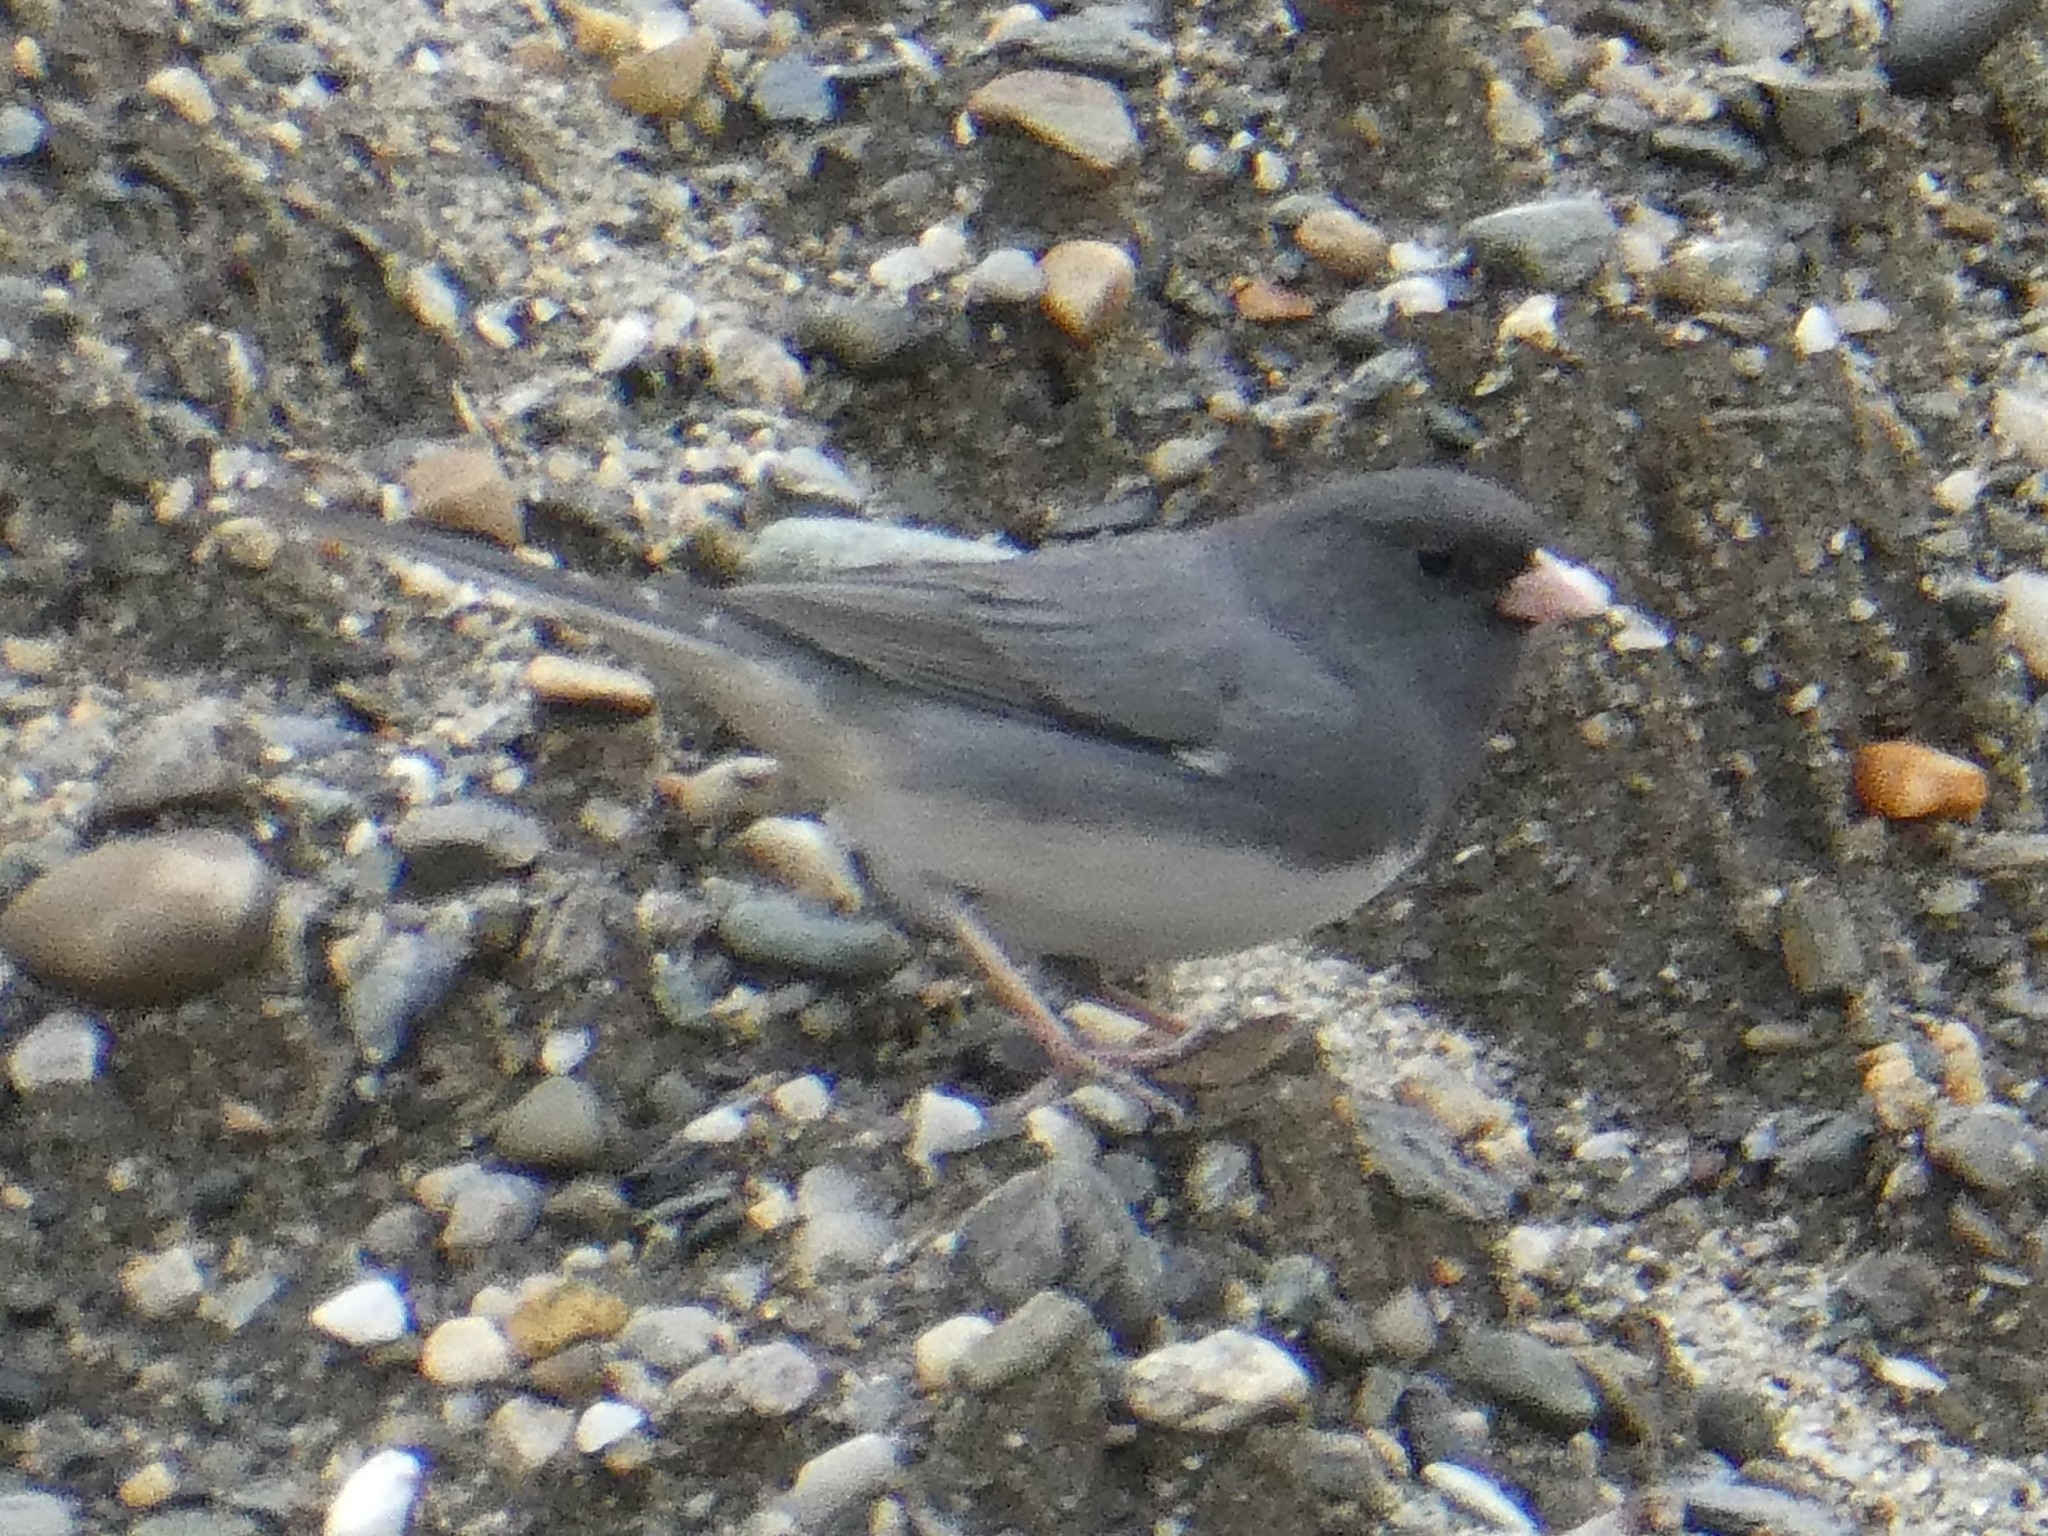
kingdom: Animalia
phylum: Chordata
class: Aves
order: Passeriformes
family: Passerellidae
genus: Junco
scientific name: Junco hyemalis
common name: Dark-eyed junco
